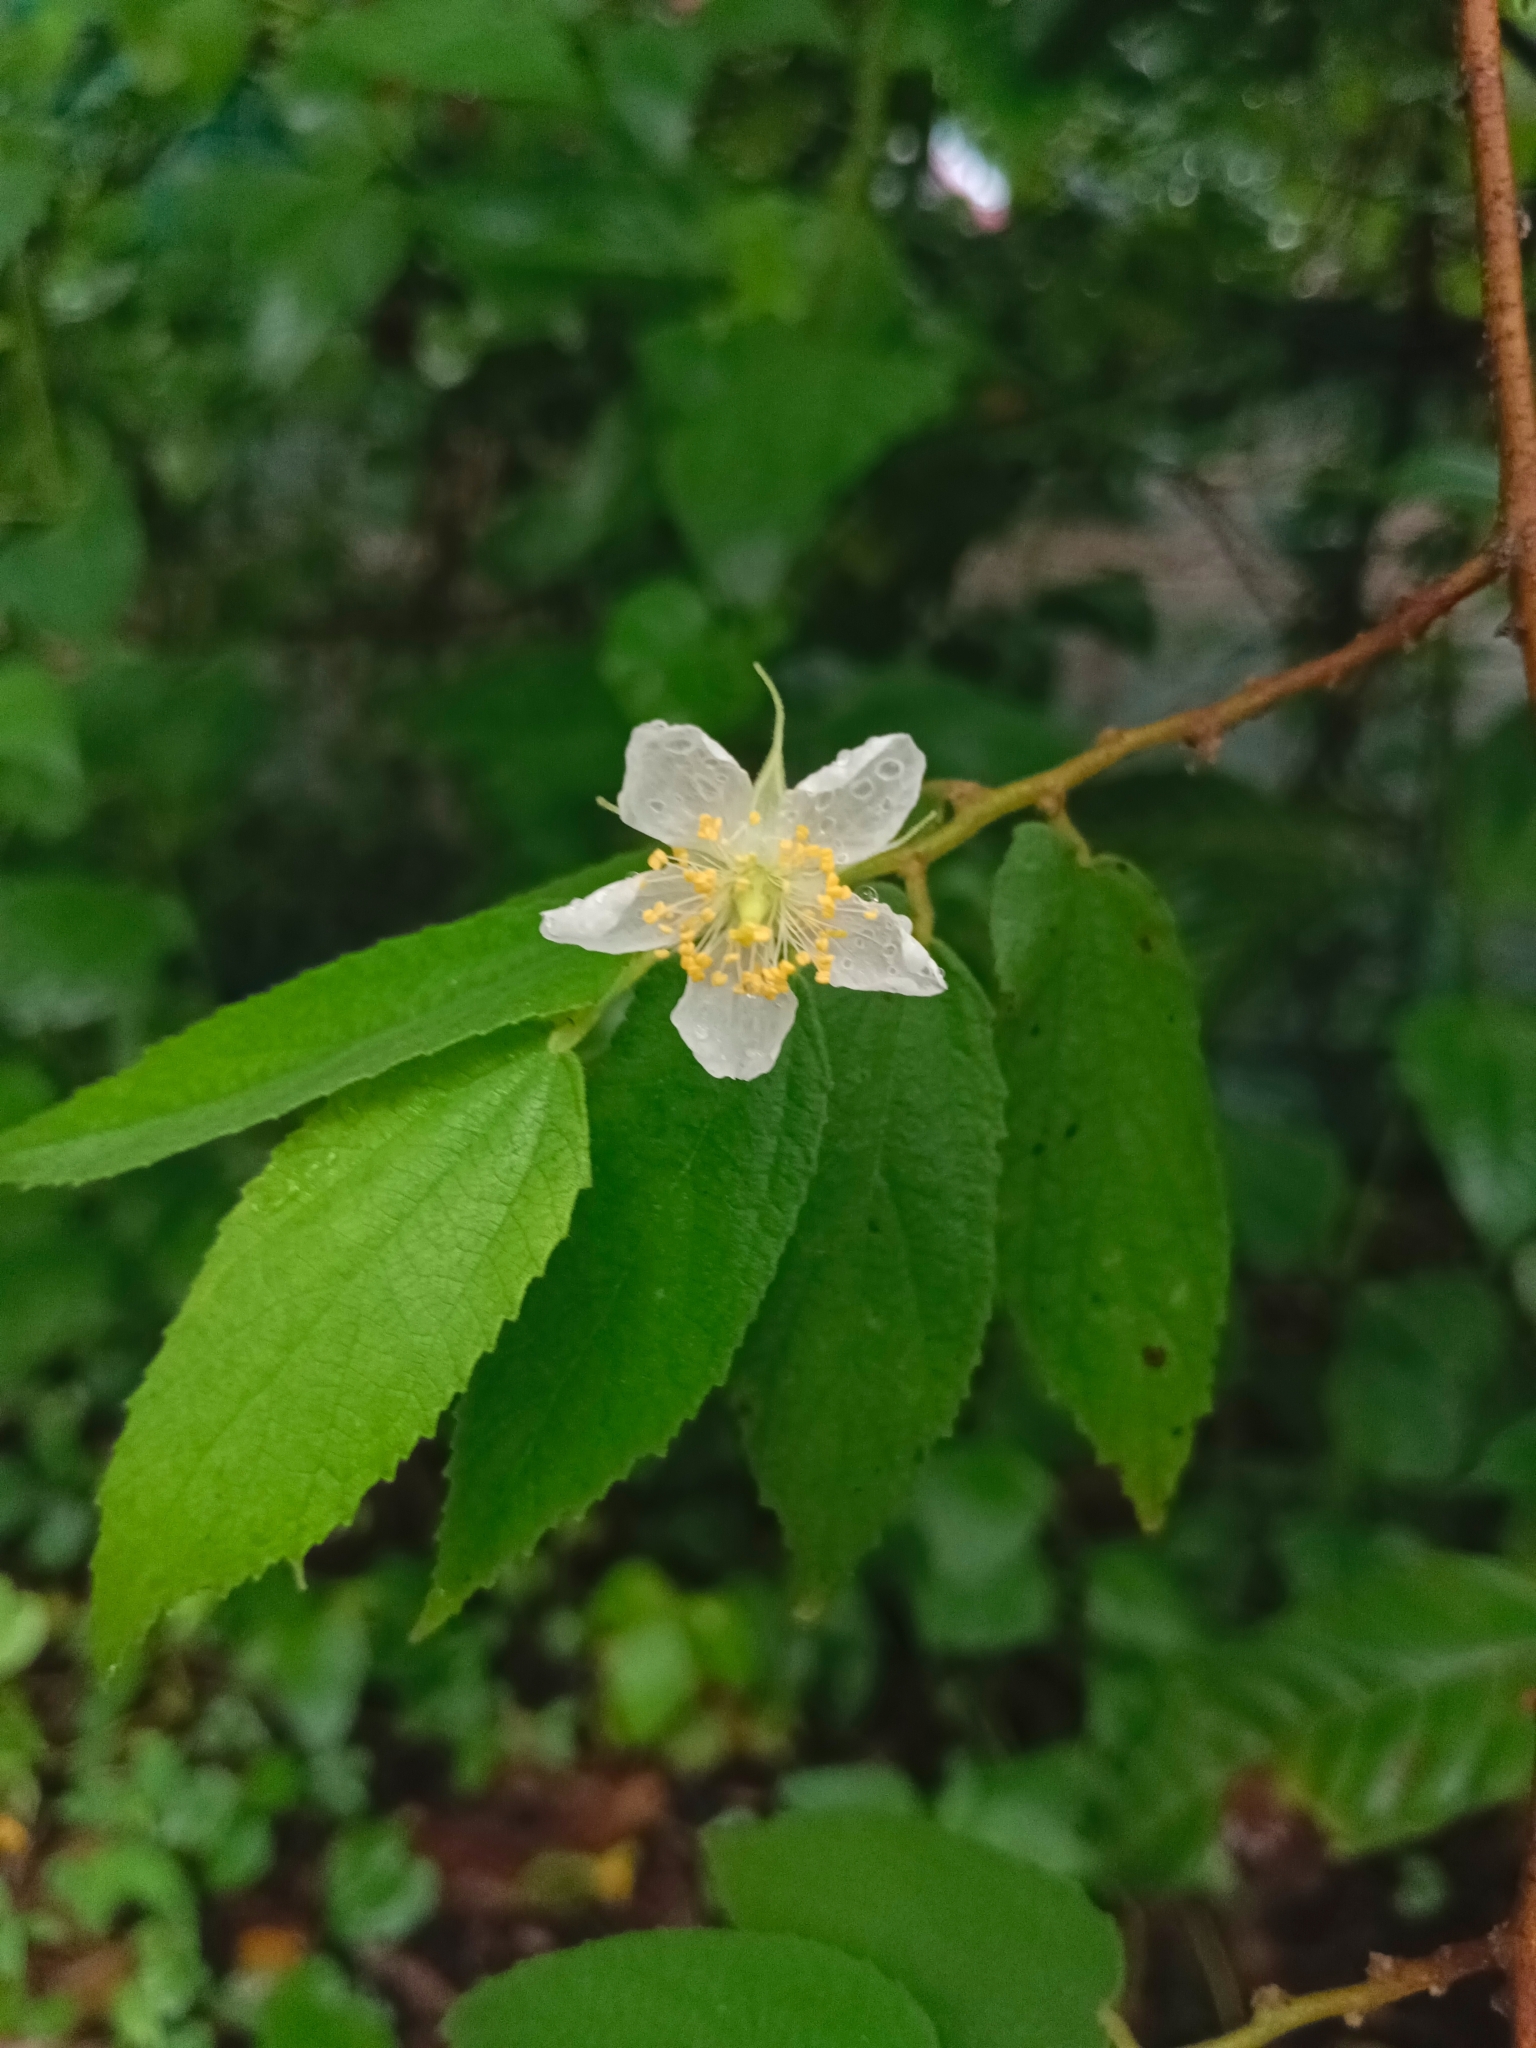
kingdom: Plantae
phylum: Tracheophyta
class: Magnoliopsida
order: Malvales
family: Muntingiaceae
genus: Muntingia
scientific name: Muntingia calabura
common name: Strawberrytree
